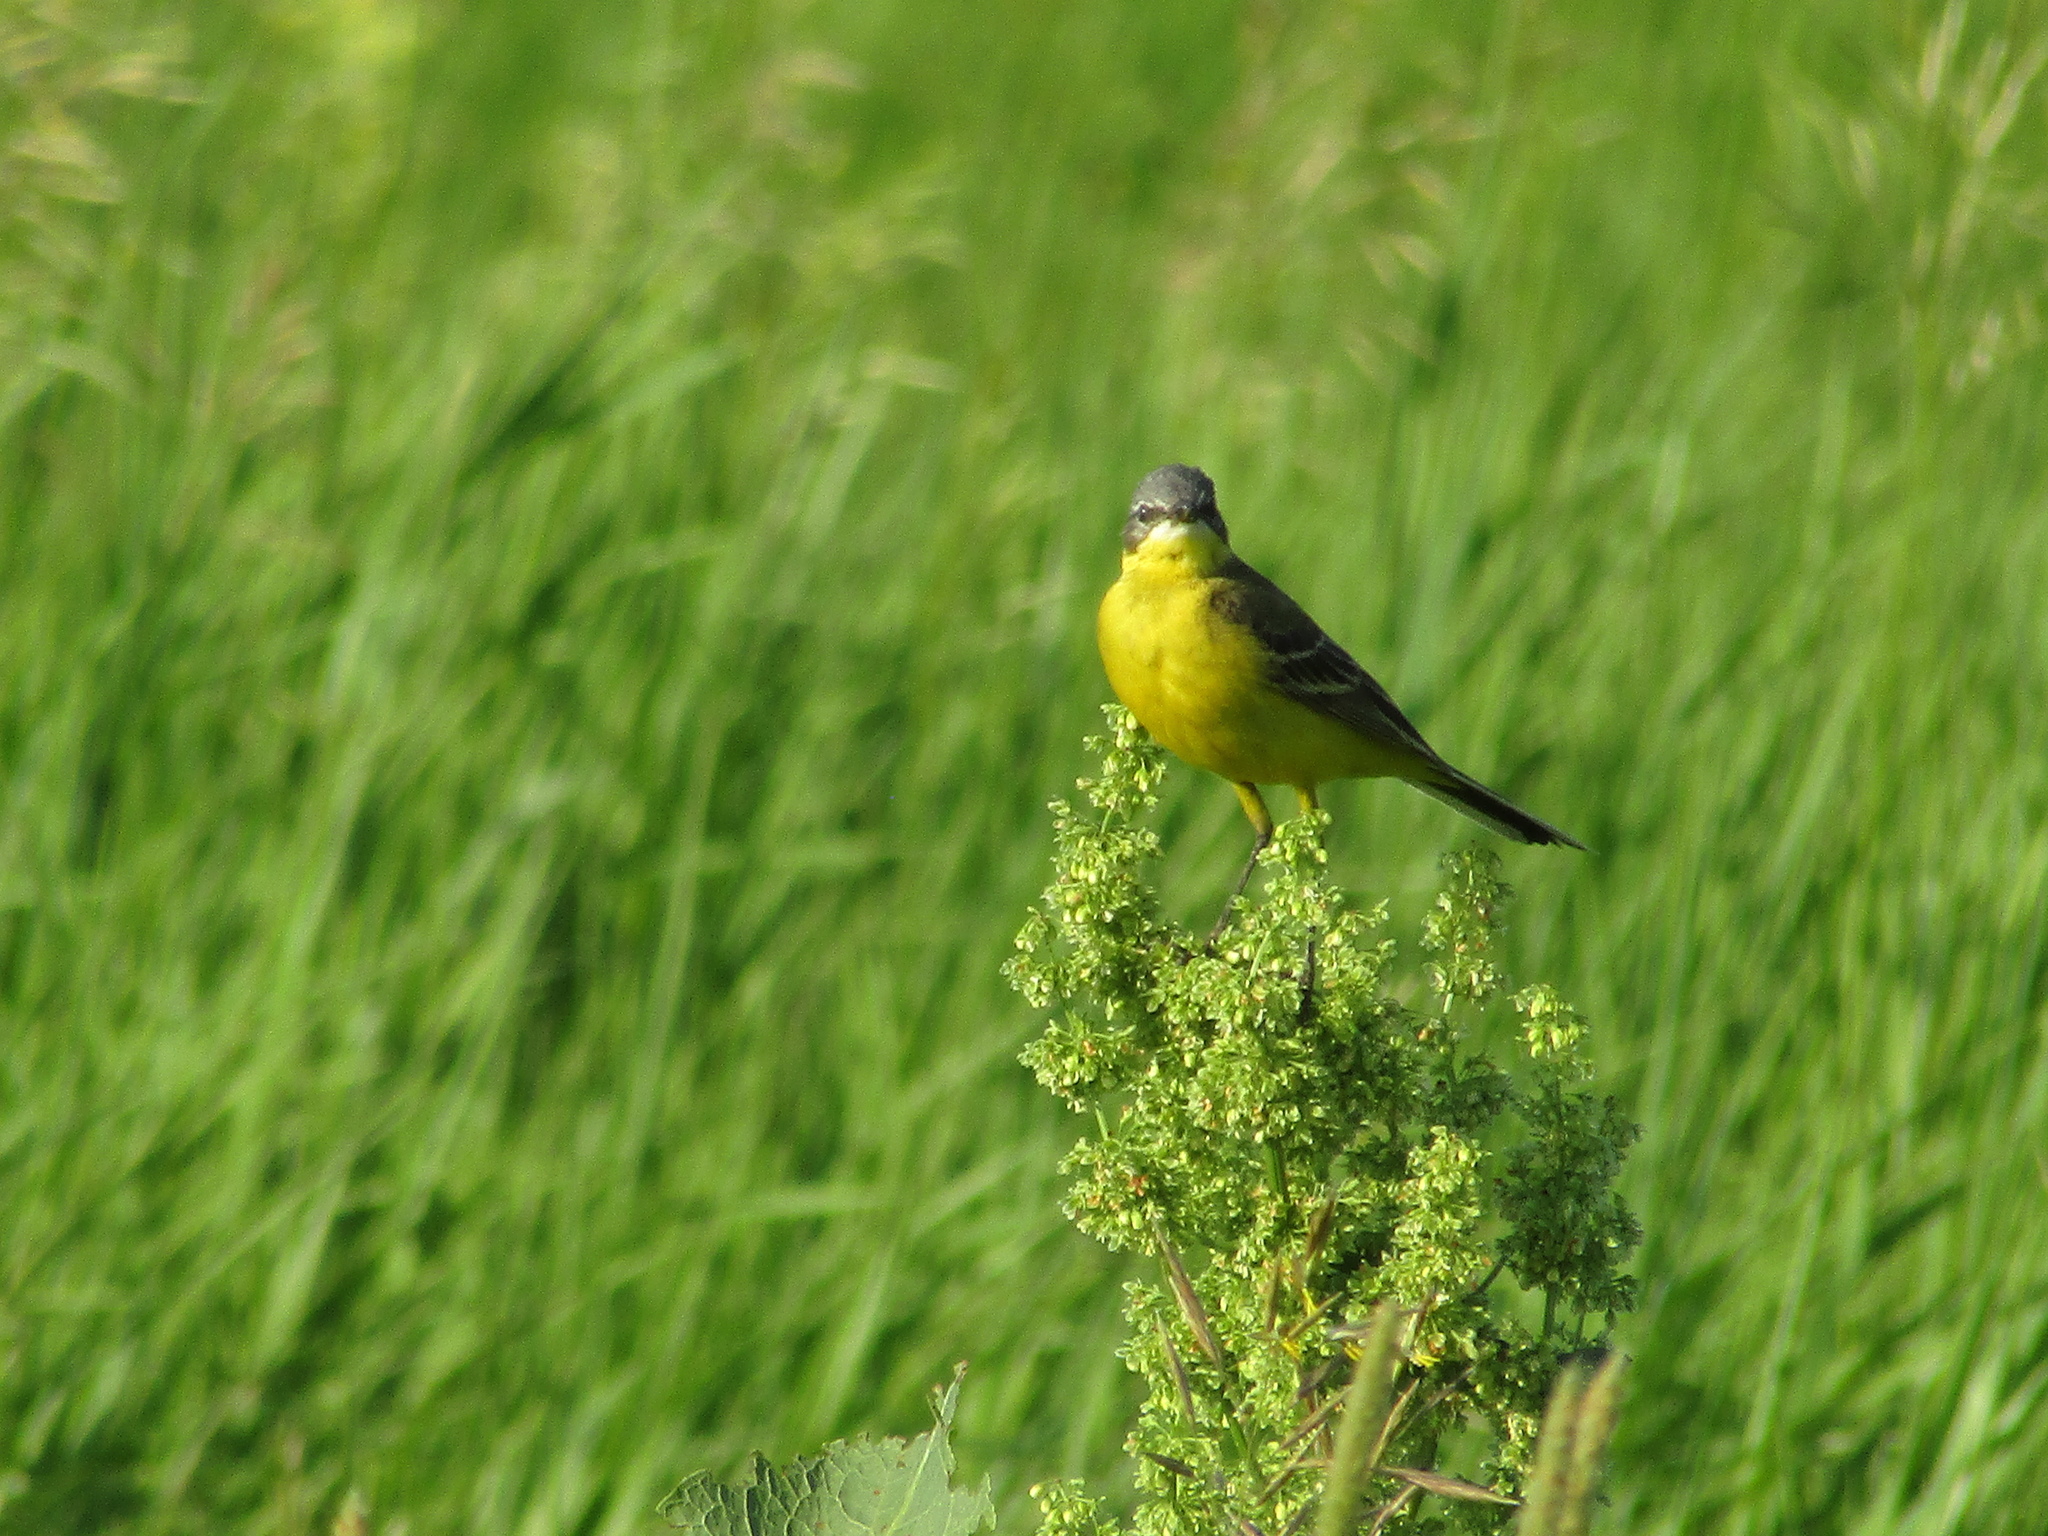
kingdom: Animalia
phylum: Chordata
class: Aves
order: Passeriformes
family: Motacillidae
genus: Motacilla
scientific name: Motacilla flava
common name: Western yellow wagtail
